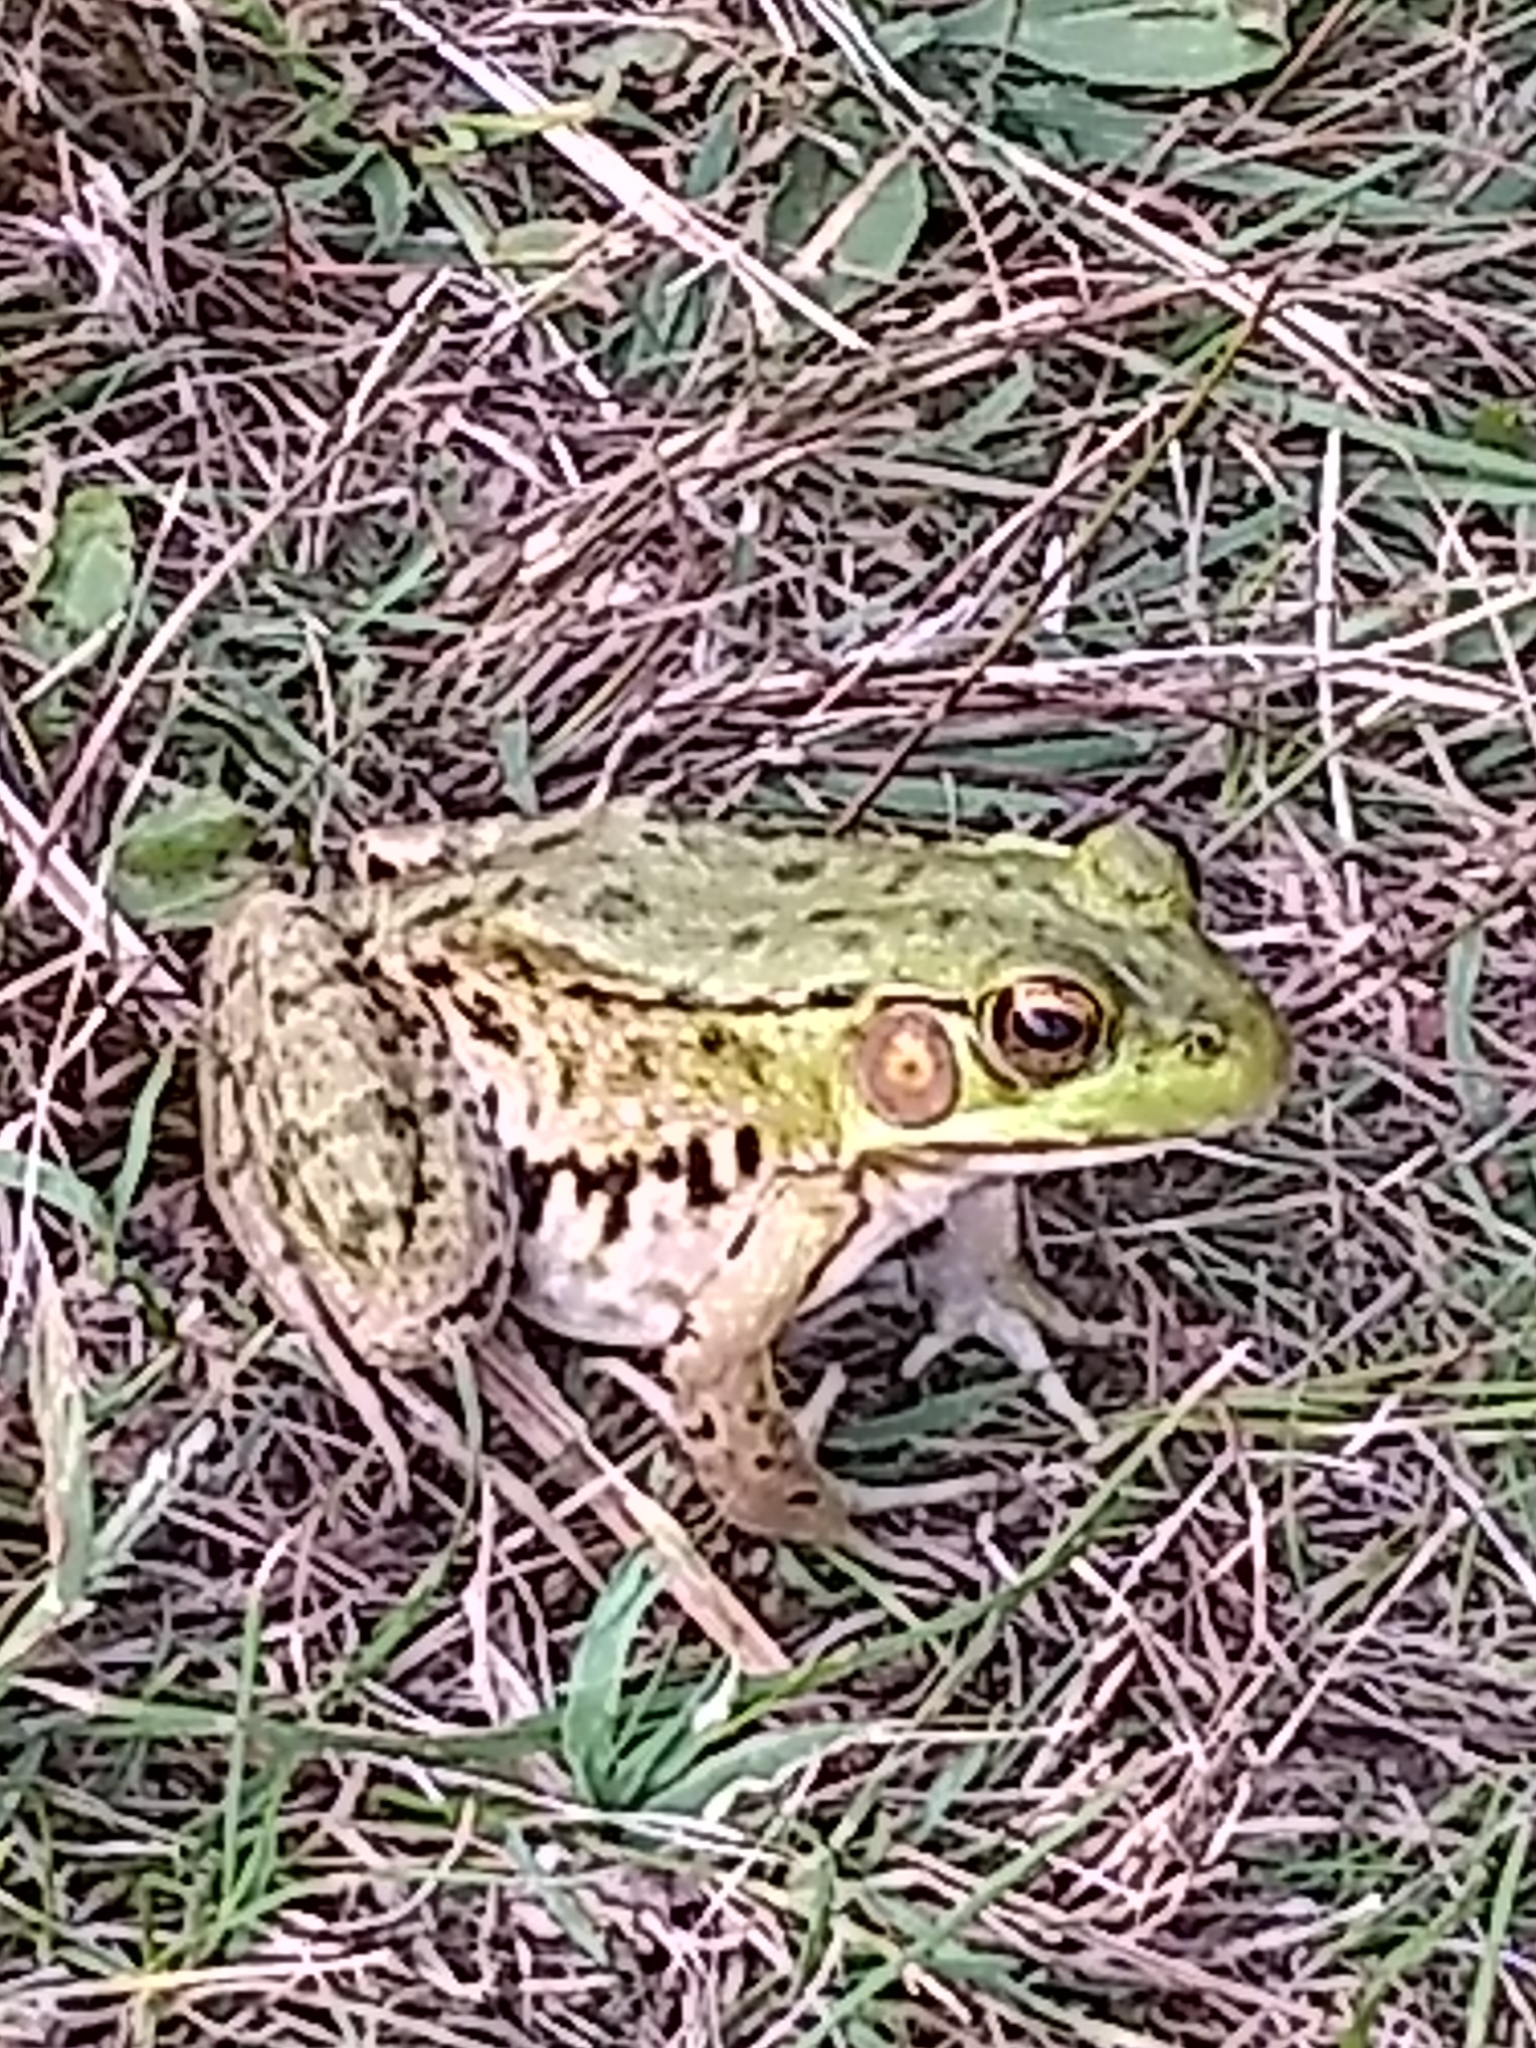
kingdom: Animalia
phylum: Chordata
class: Amphibia
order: Anura
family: Ranidae
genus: Lithobates
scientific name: Lithobates clamitans
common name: Green frog
